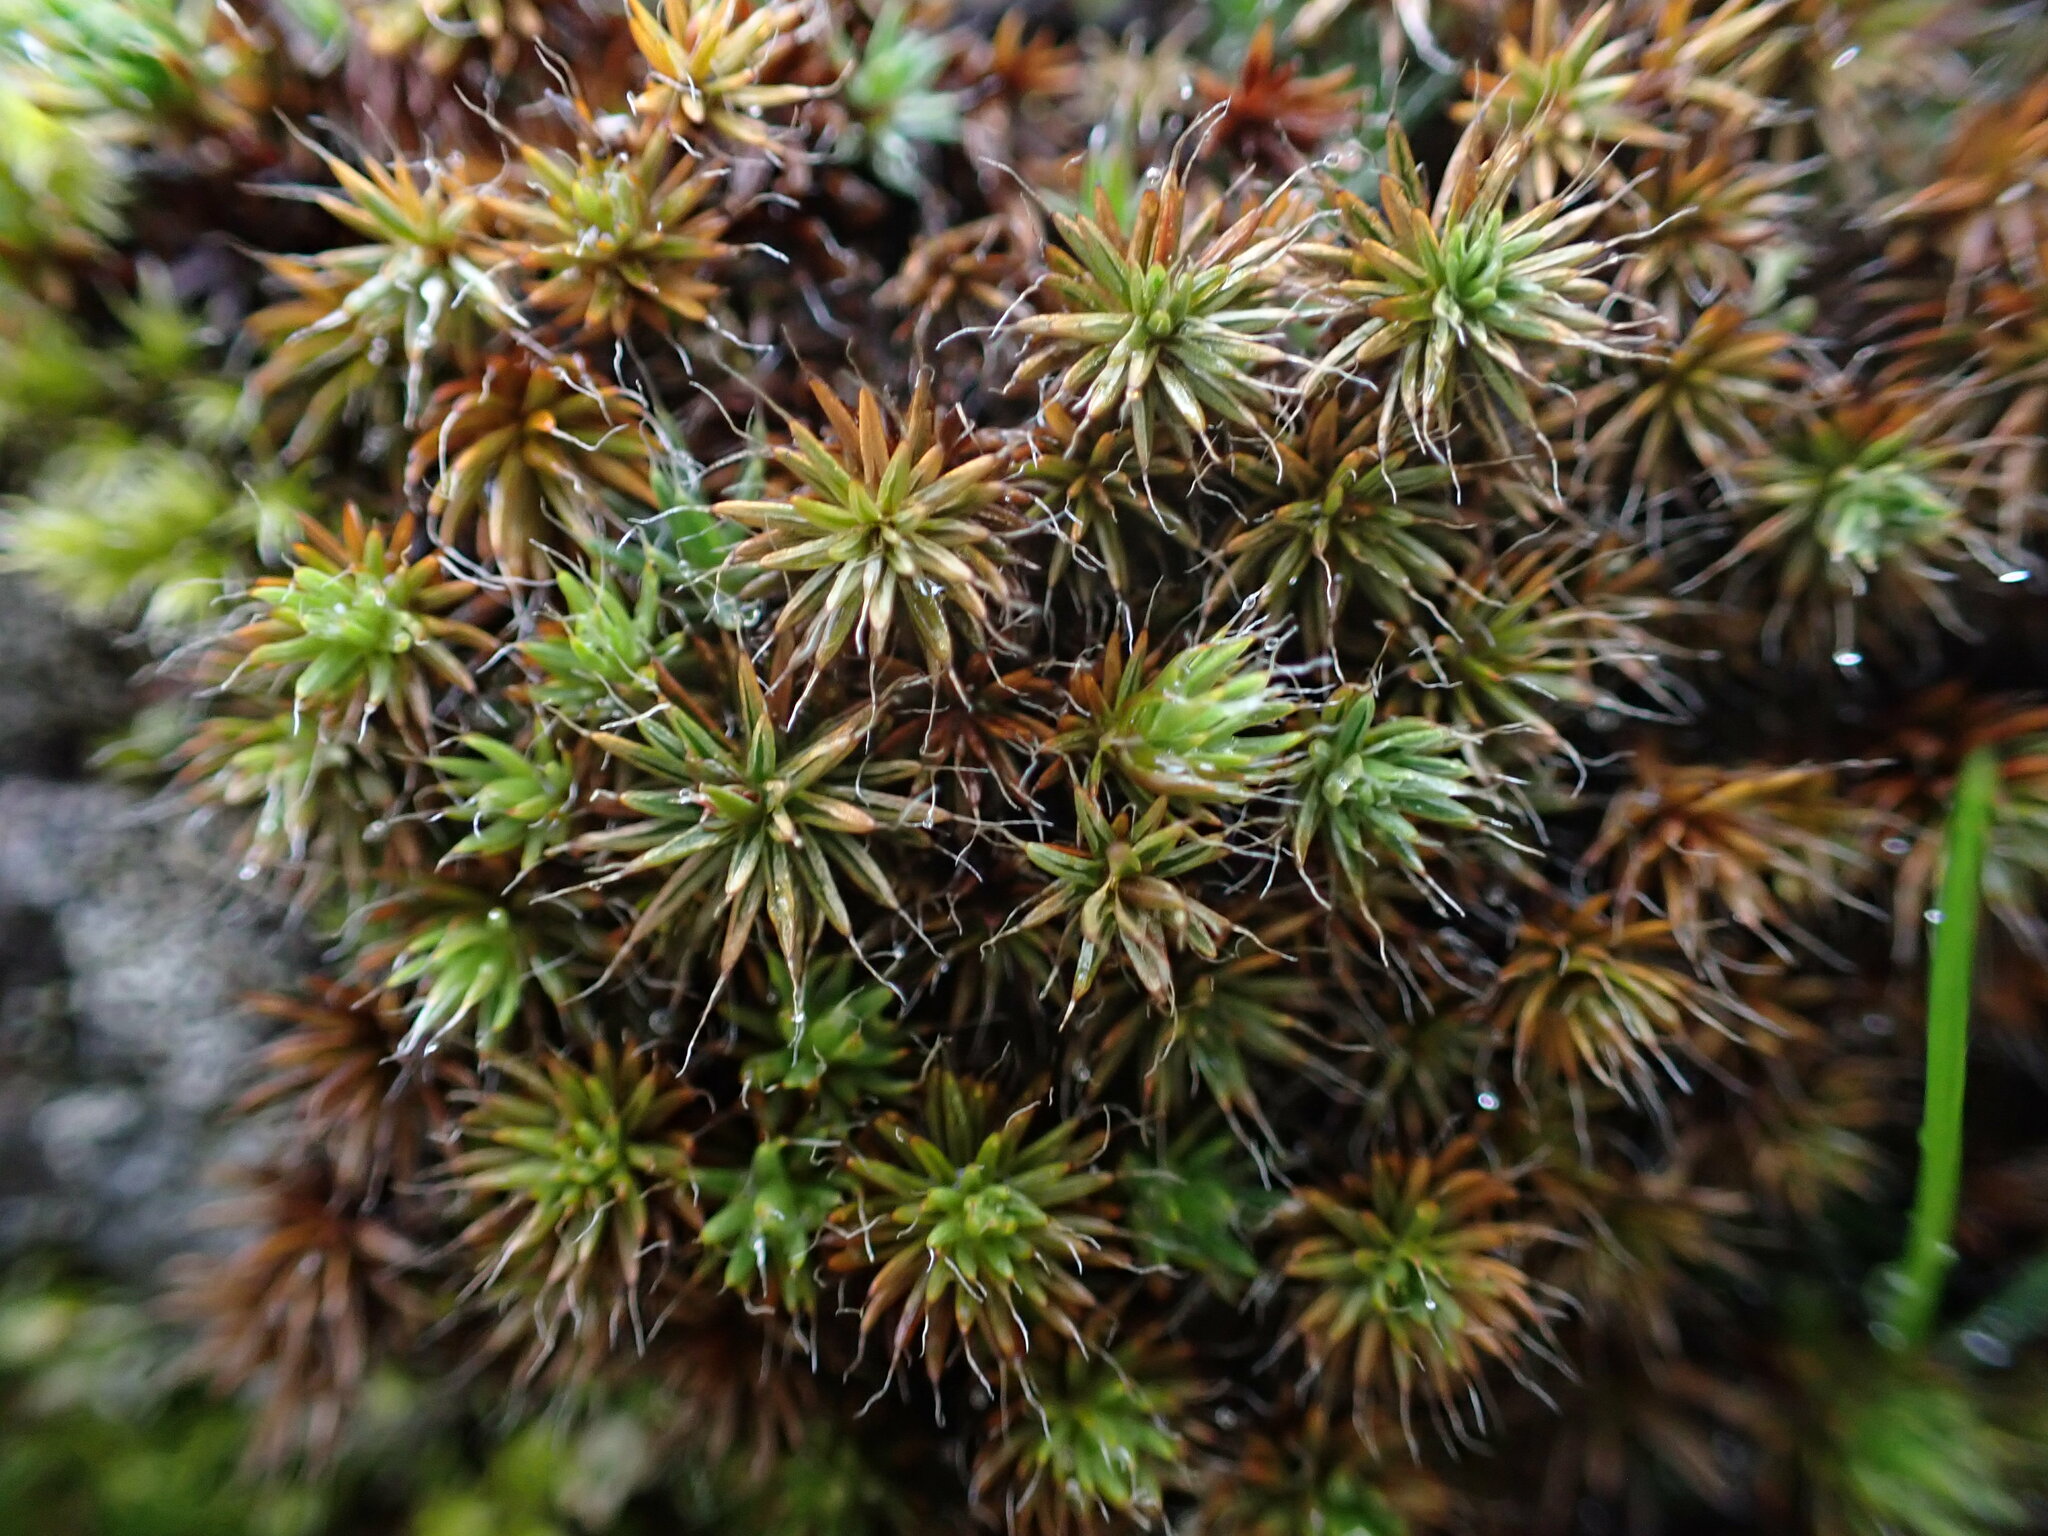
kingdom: Plantae
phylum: Bryophyta
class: Polytrichopsida
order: Polytrichales
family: Polytrichaceae
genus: Polytrichum
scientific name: Polytrichum piliferum
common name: Bristly haircap
